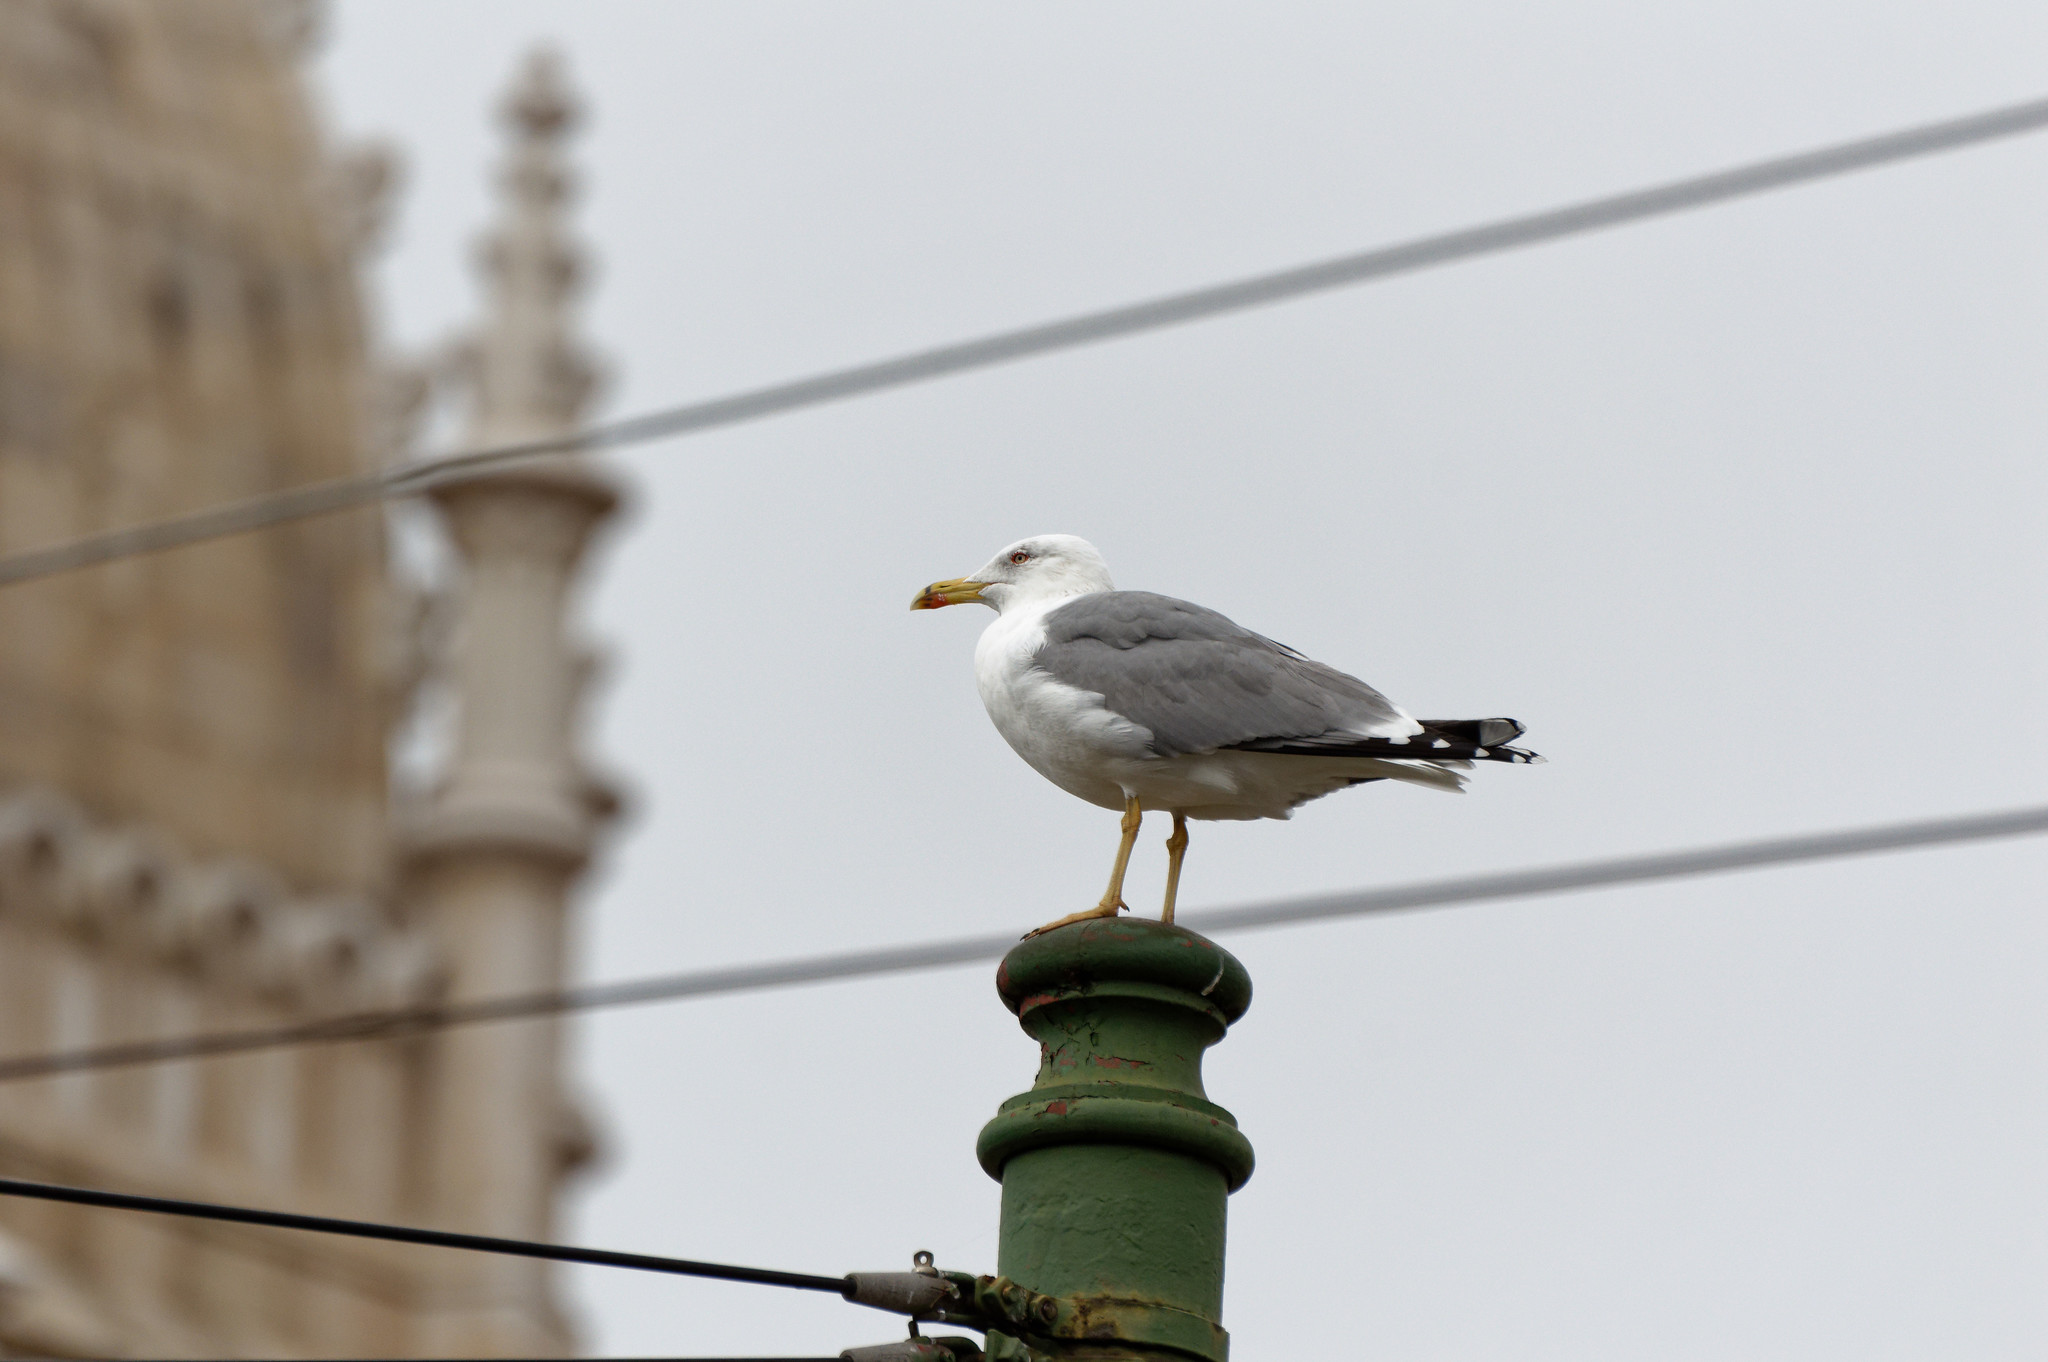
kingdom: Animalia
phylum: Chordata
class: Aves
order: Charadriiformes
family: Laridae
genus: Larus
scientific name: Larus michahellis
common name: Yellow-legged gull
